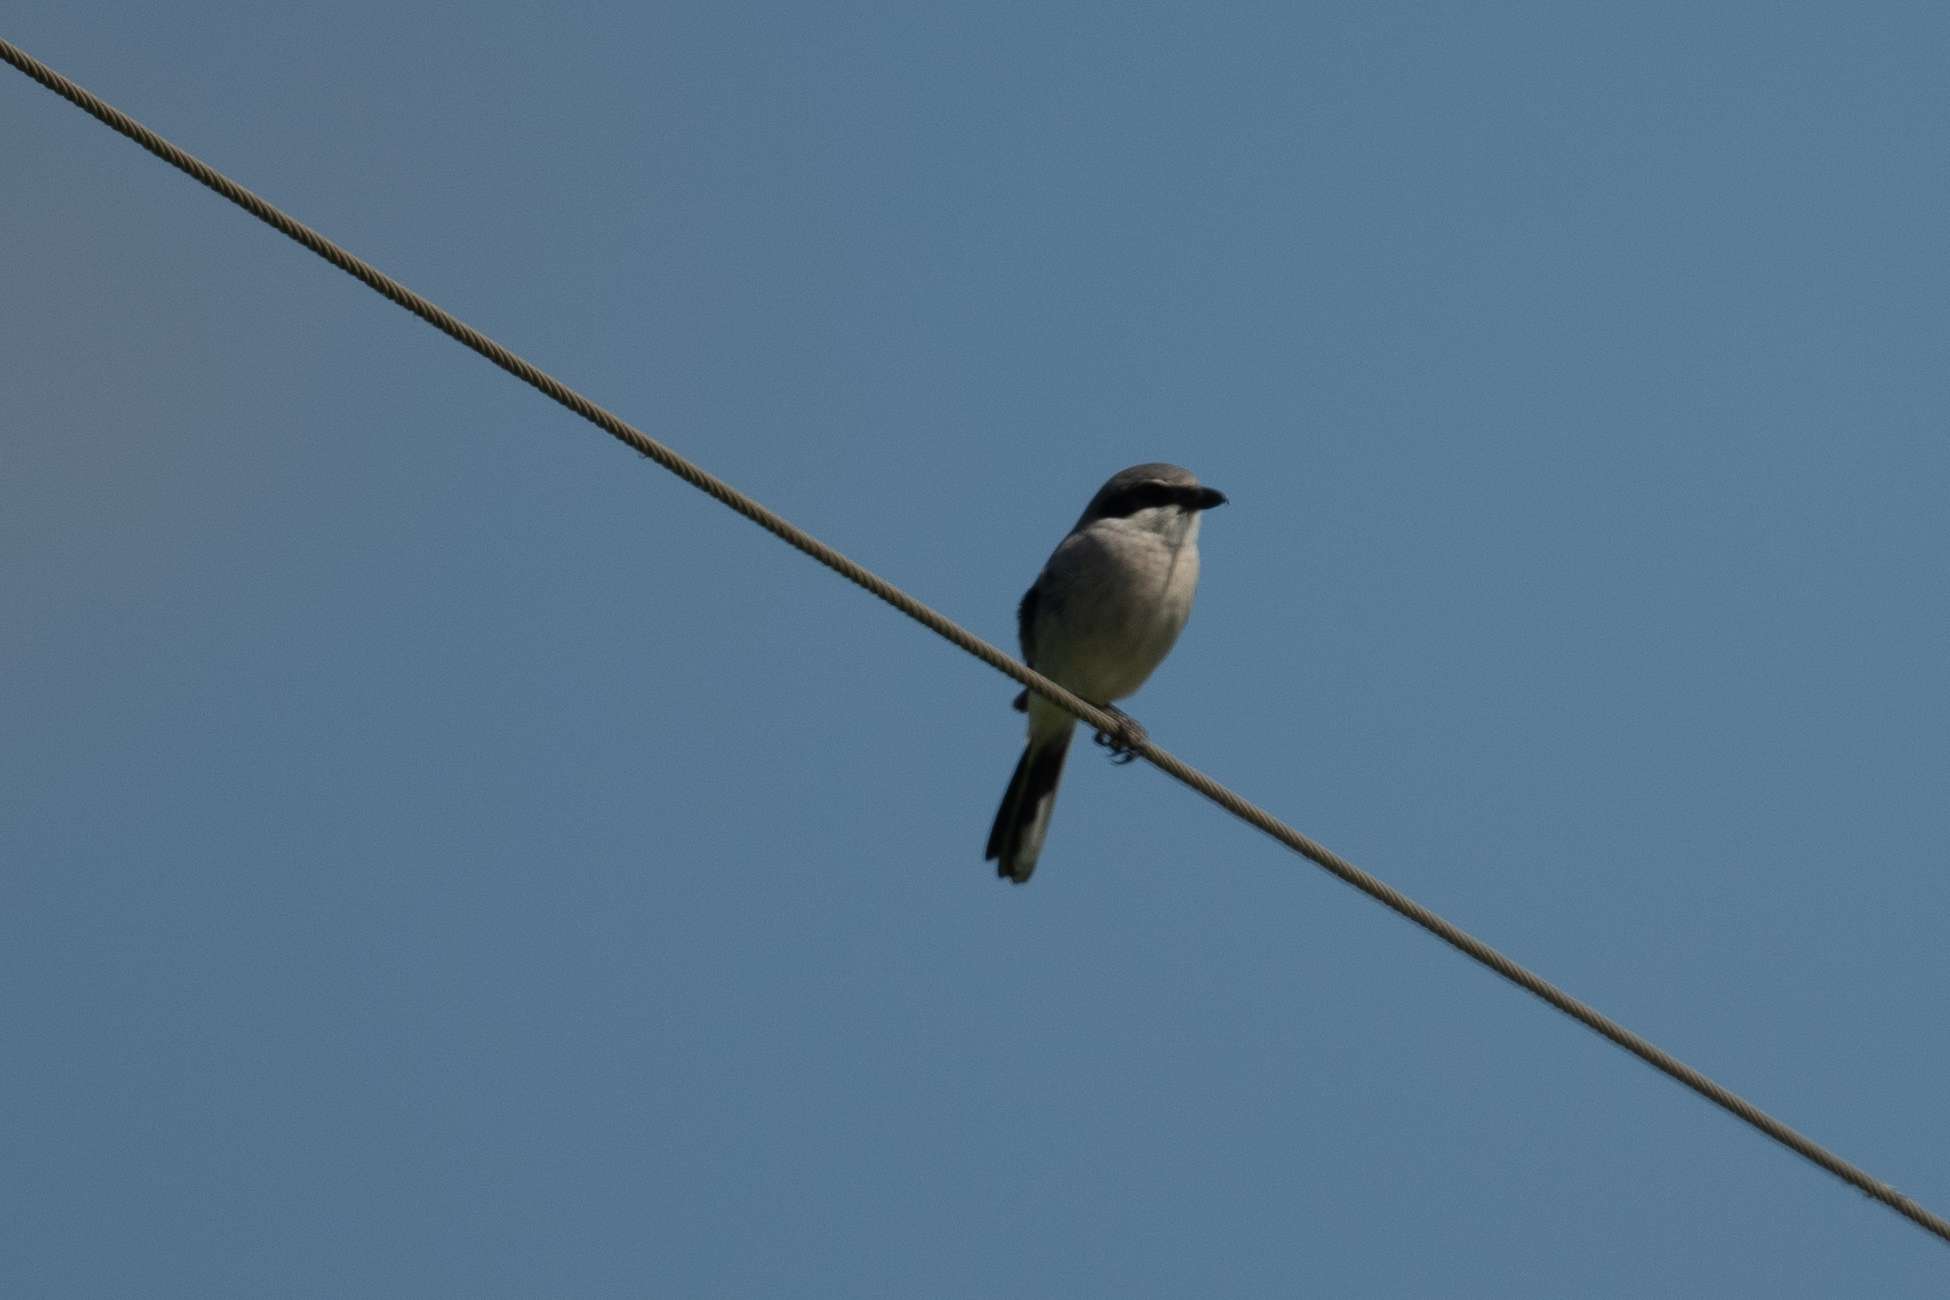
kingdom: Animalia
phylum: Chordata
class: Aves
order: Passeriformes
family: Laniidae
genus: Lanius
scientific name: Lanius ludovicianus
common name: Loggerhead shrike
